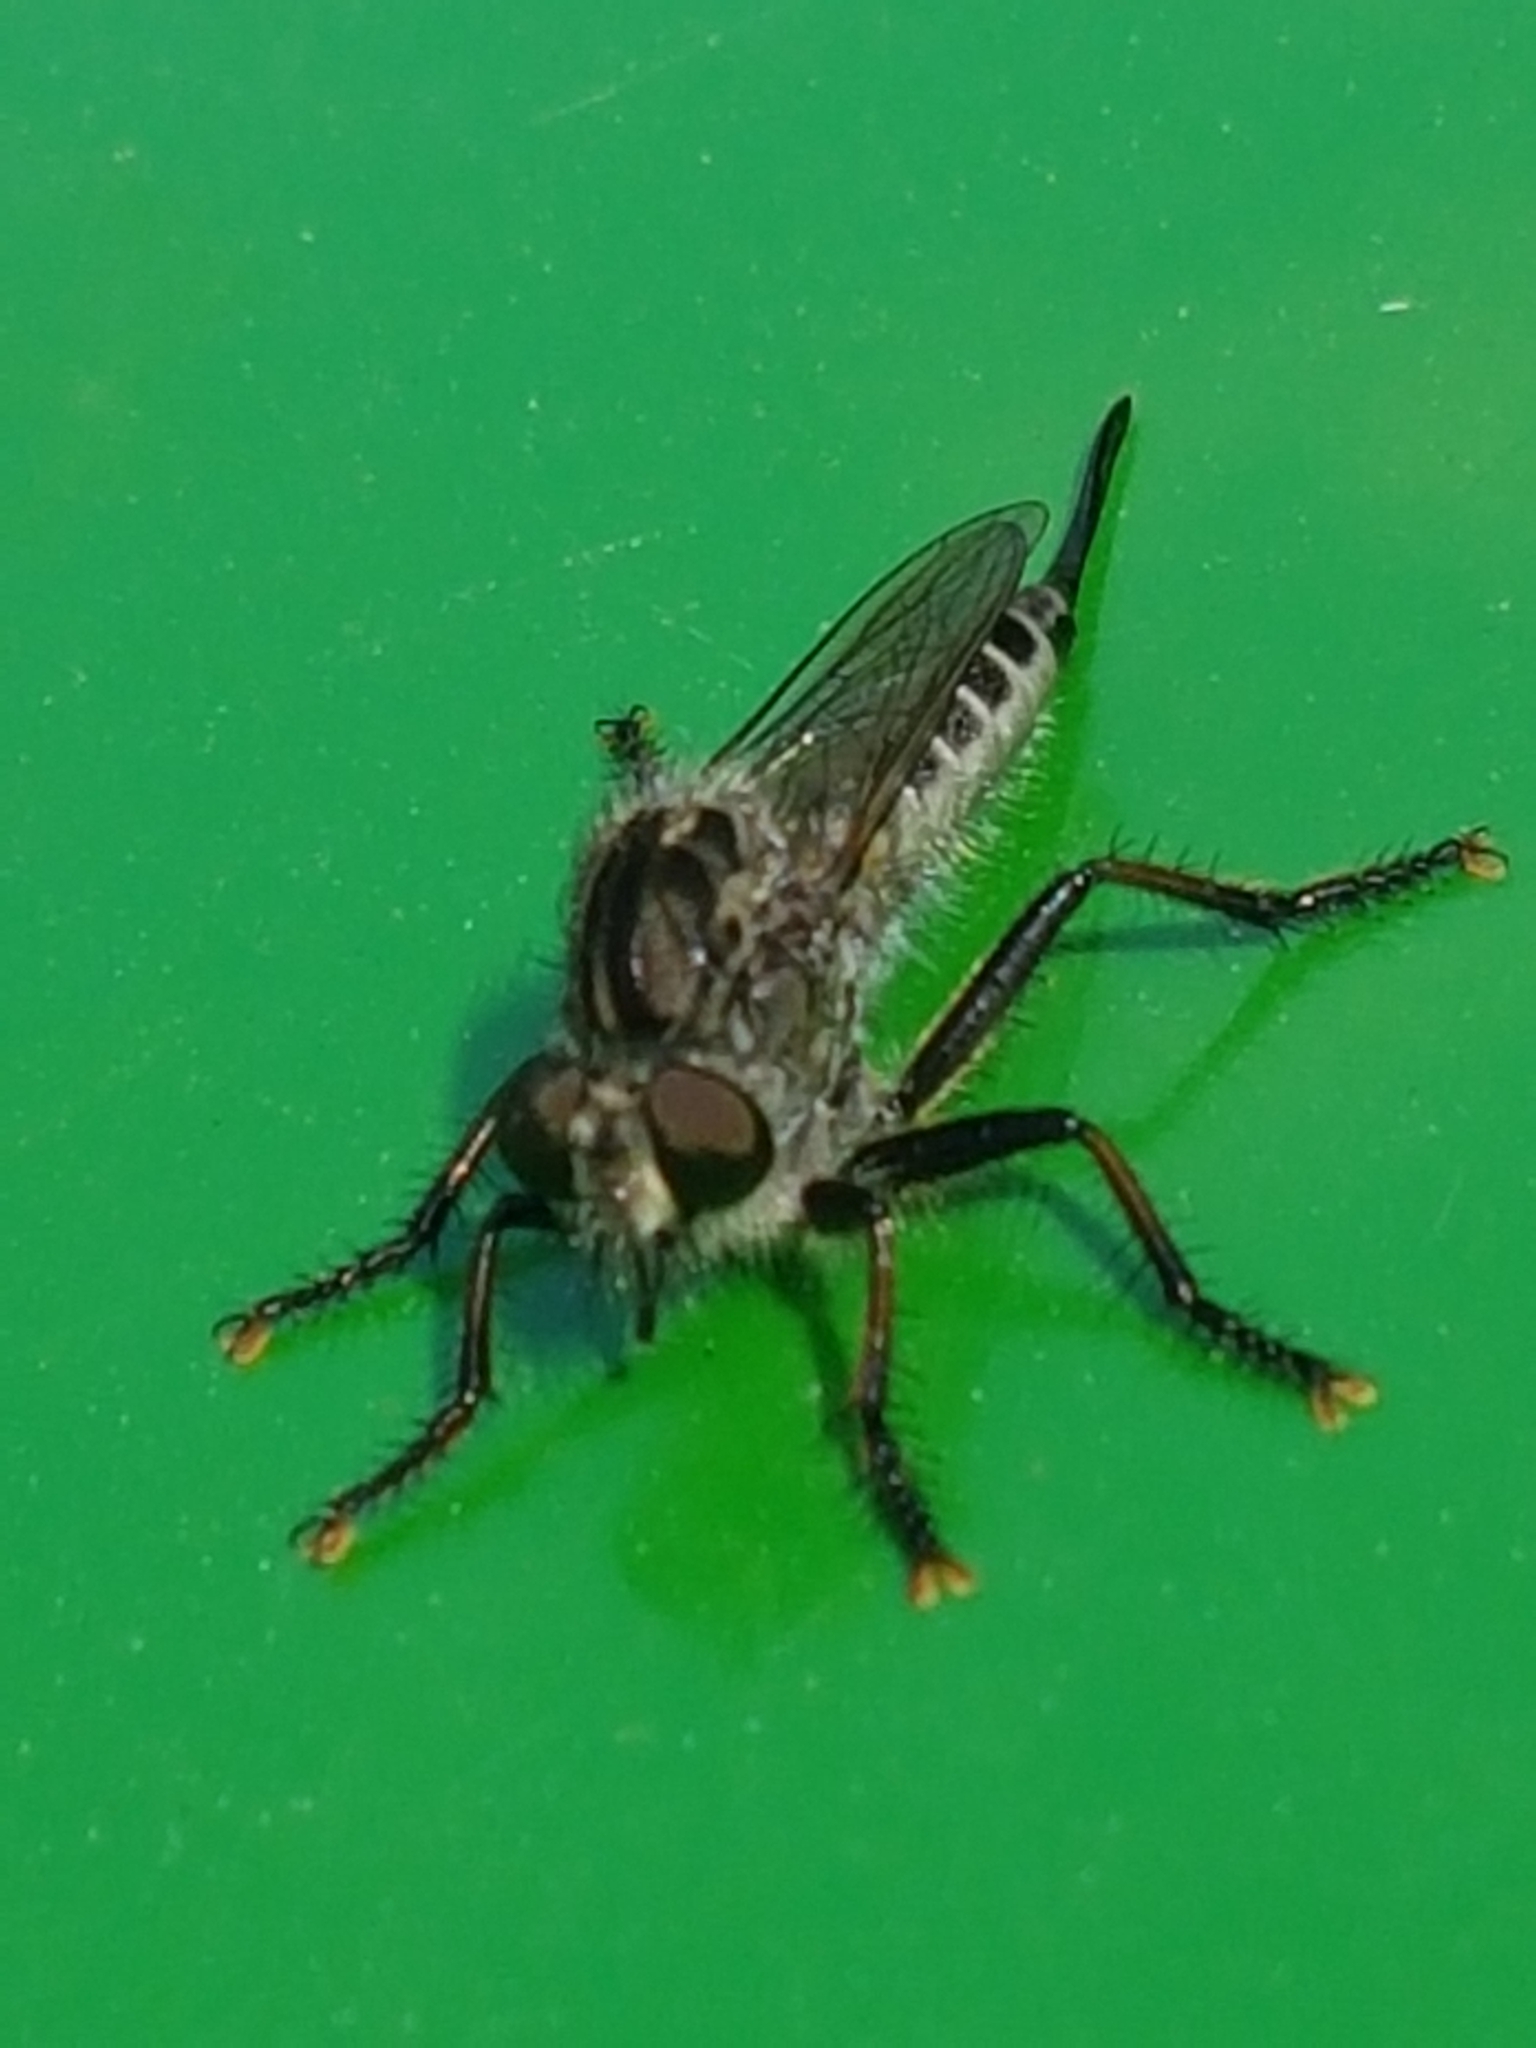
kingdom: Animalia
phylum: Arthropoda
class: Insecta
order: Diptera
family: Asilidae
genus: Efferia
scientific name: Efferia aestuans
